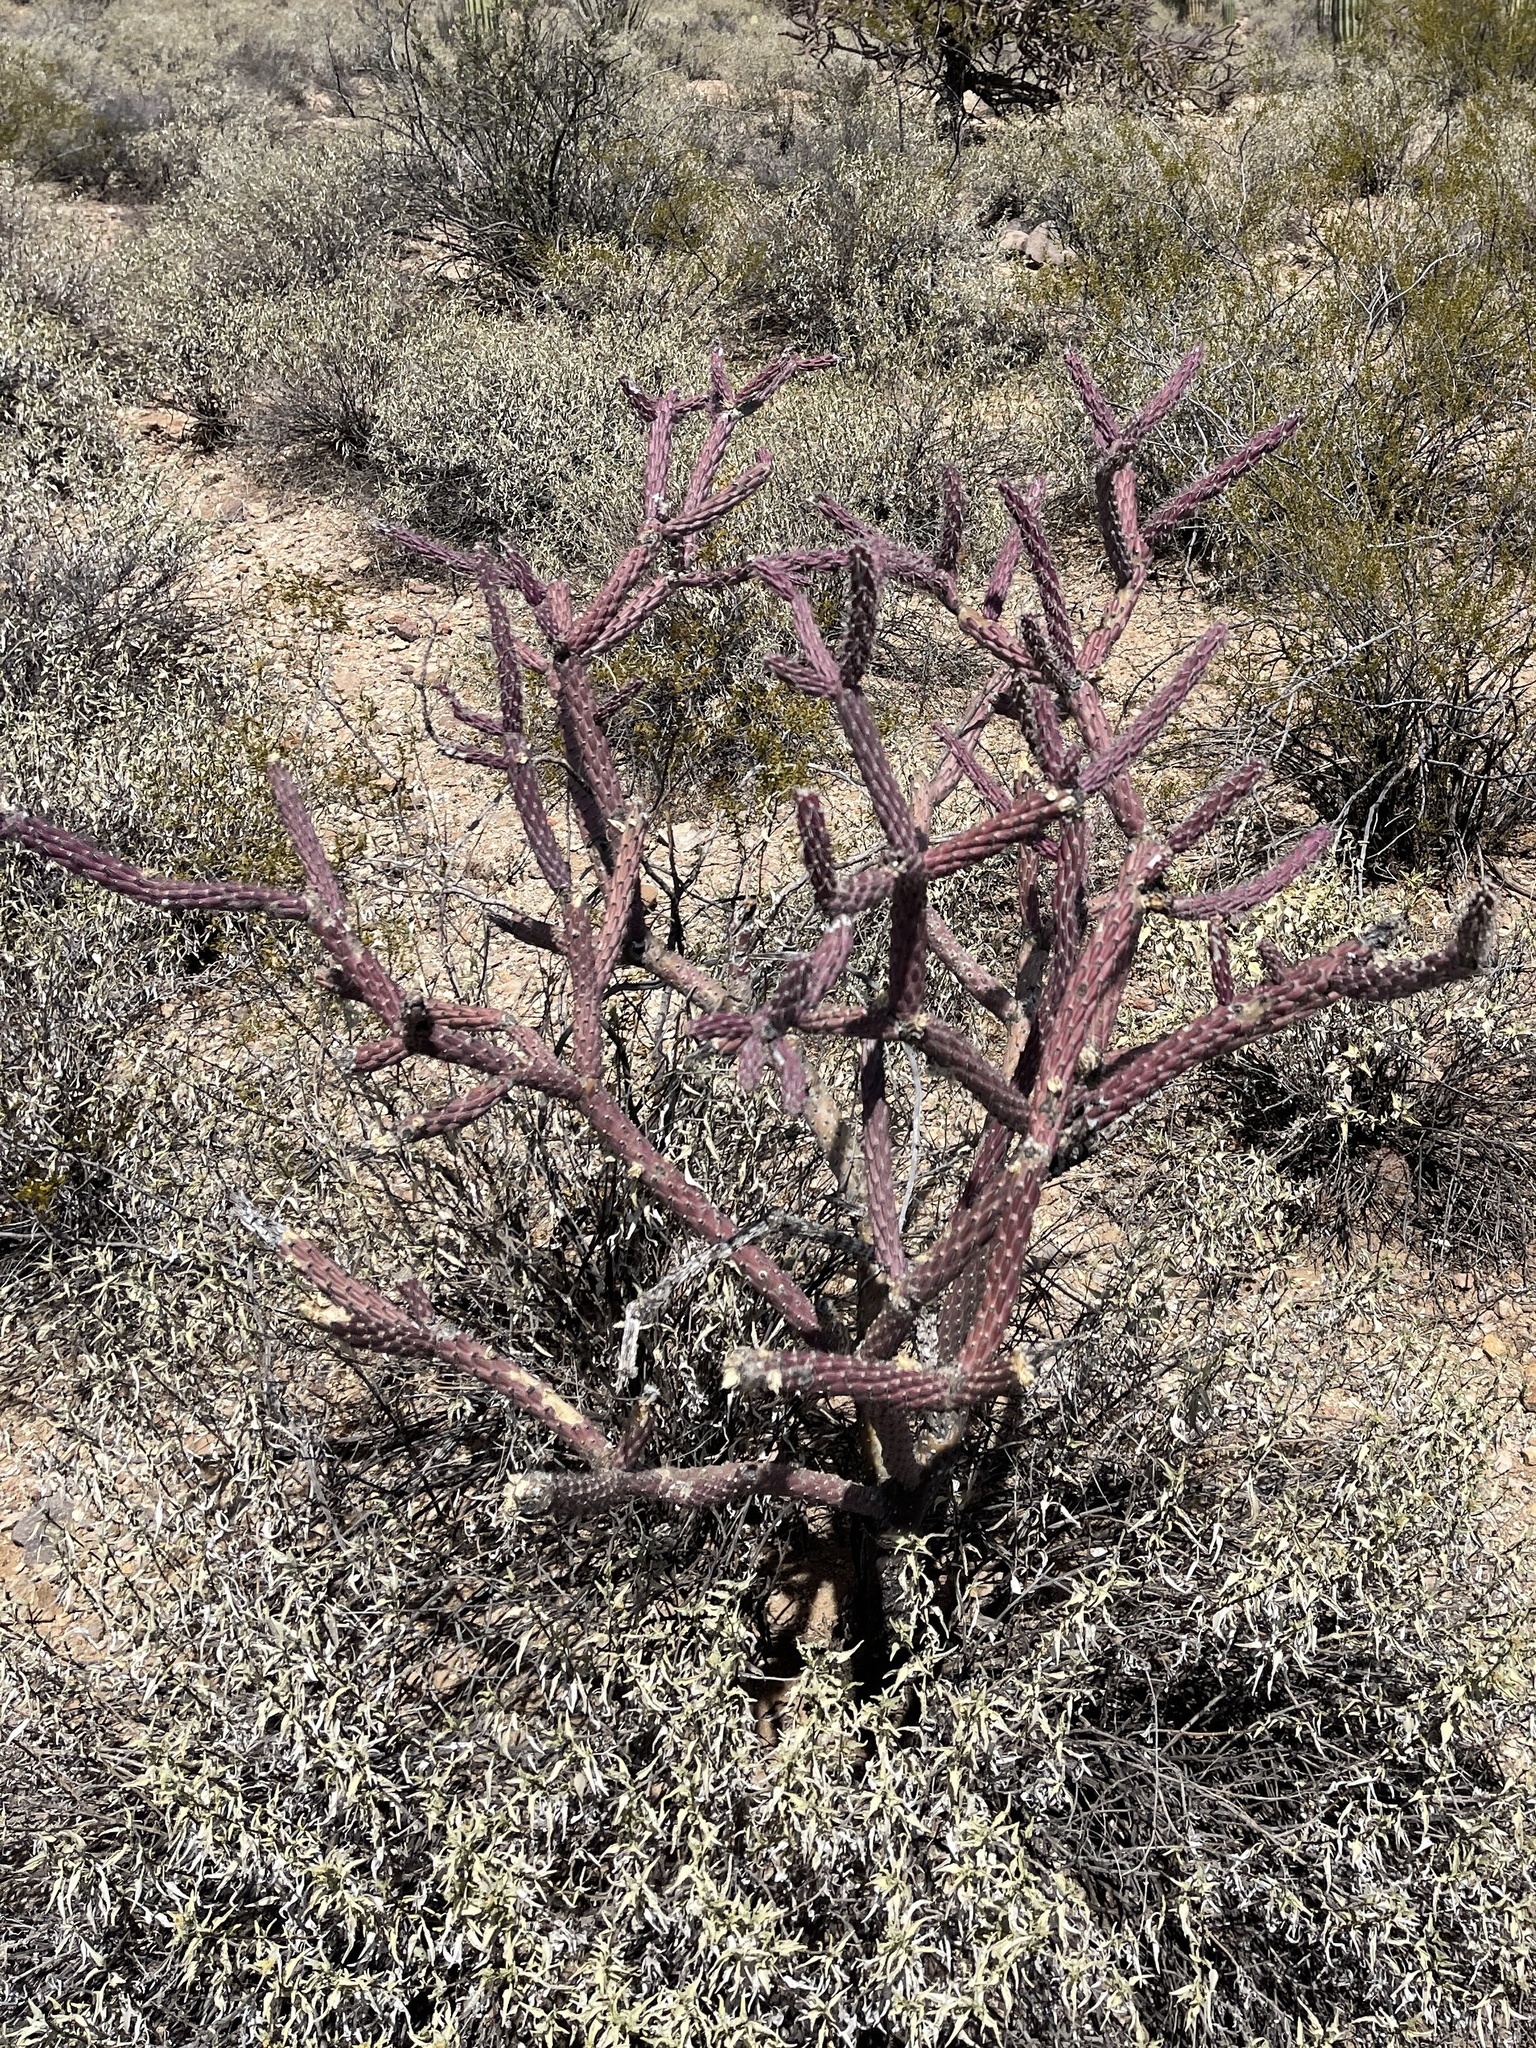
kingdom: Plantae
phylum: Tracheophyta
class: Magnoliopsida
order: Caryophyllales
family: Cactaceae
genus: Cylindropuntia
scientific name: Cylindropuntia thurberi
